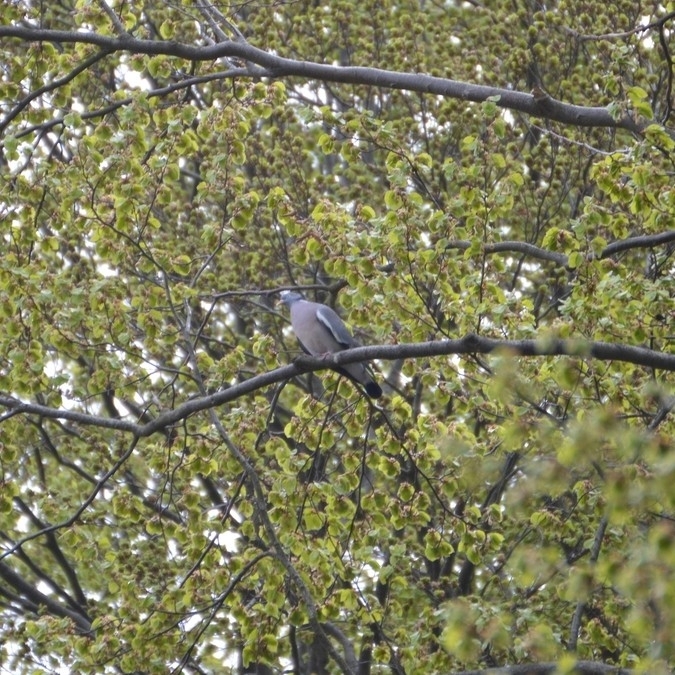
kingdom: Animalia
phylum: Chordata
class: Aves
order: Columbiformes
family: Columbidae
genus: Columba
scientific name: Columba palumbus
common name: Common wood pigeon
